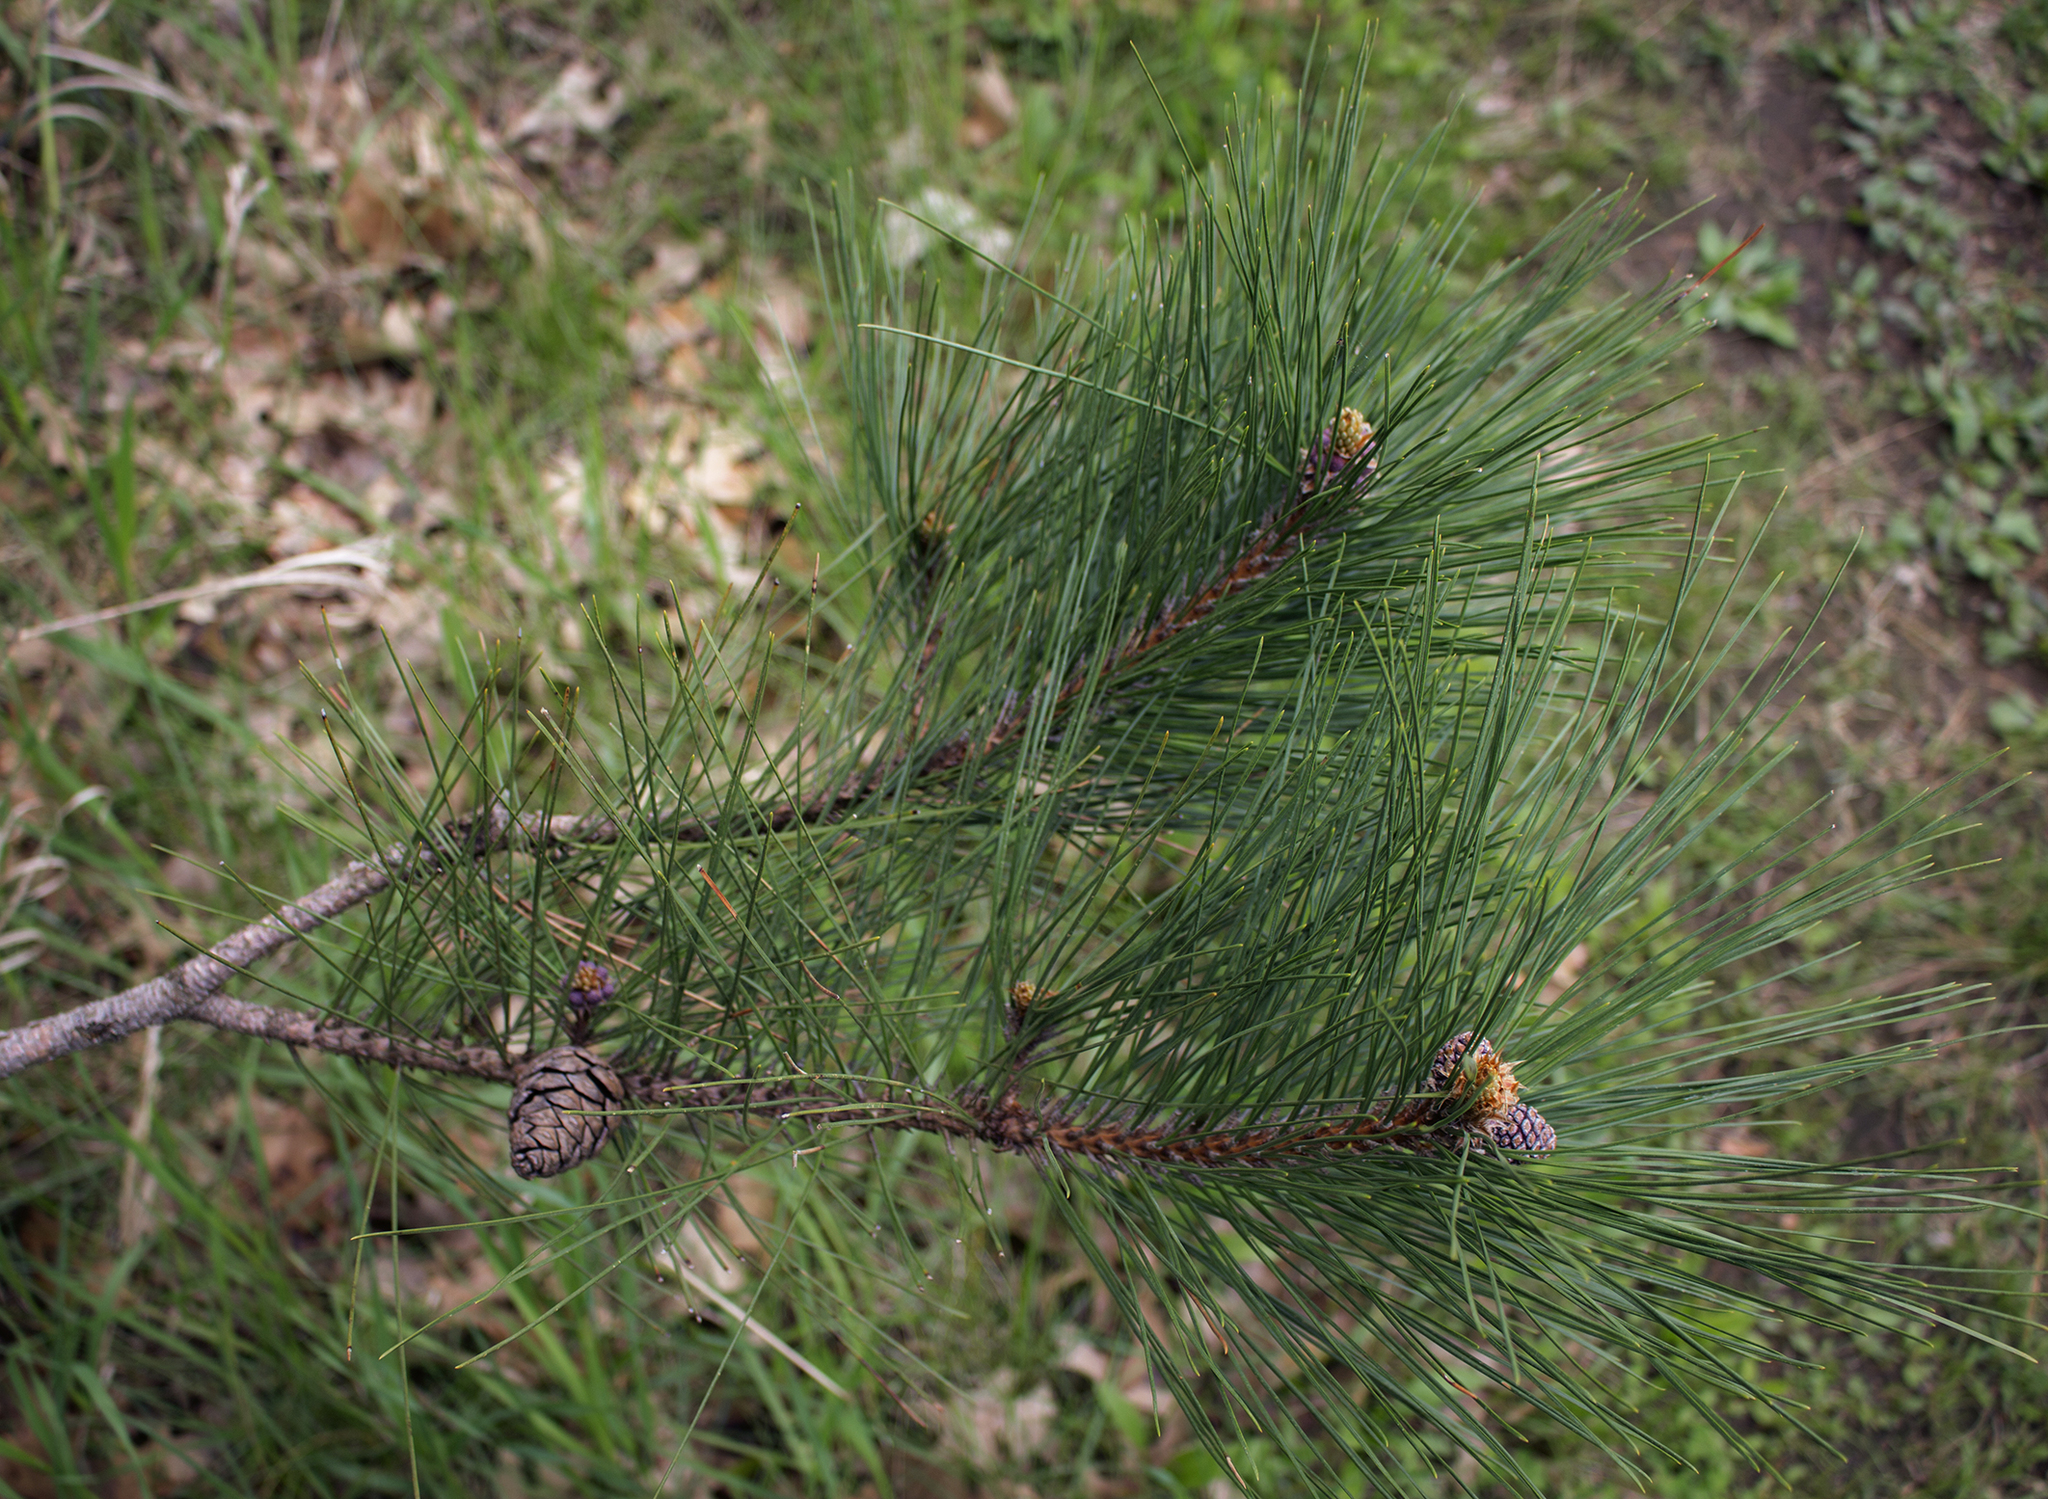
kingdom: Plantae
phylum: Tracheophyta
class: Pinopsida
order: Pinales
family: Pinaceae
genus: Pinus
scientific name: Pinus resinosa
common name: Norway pine
